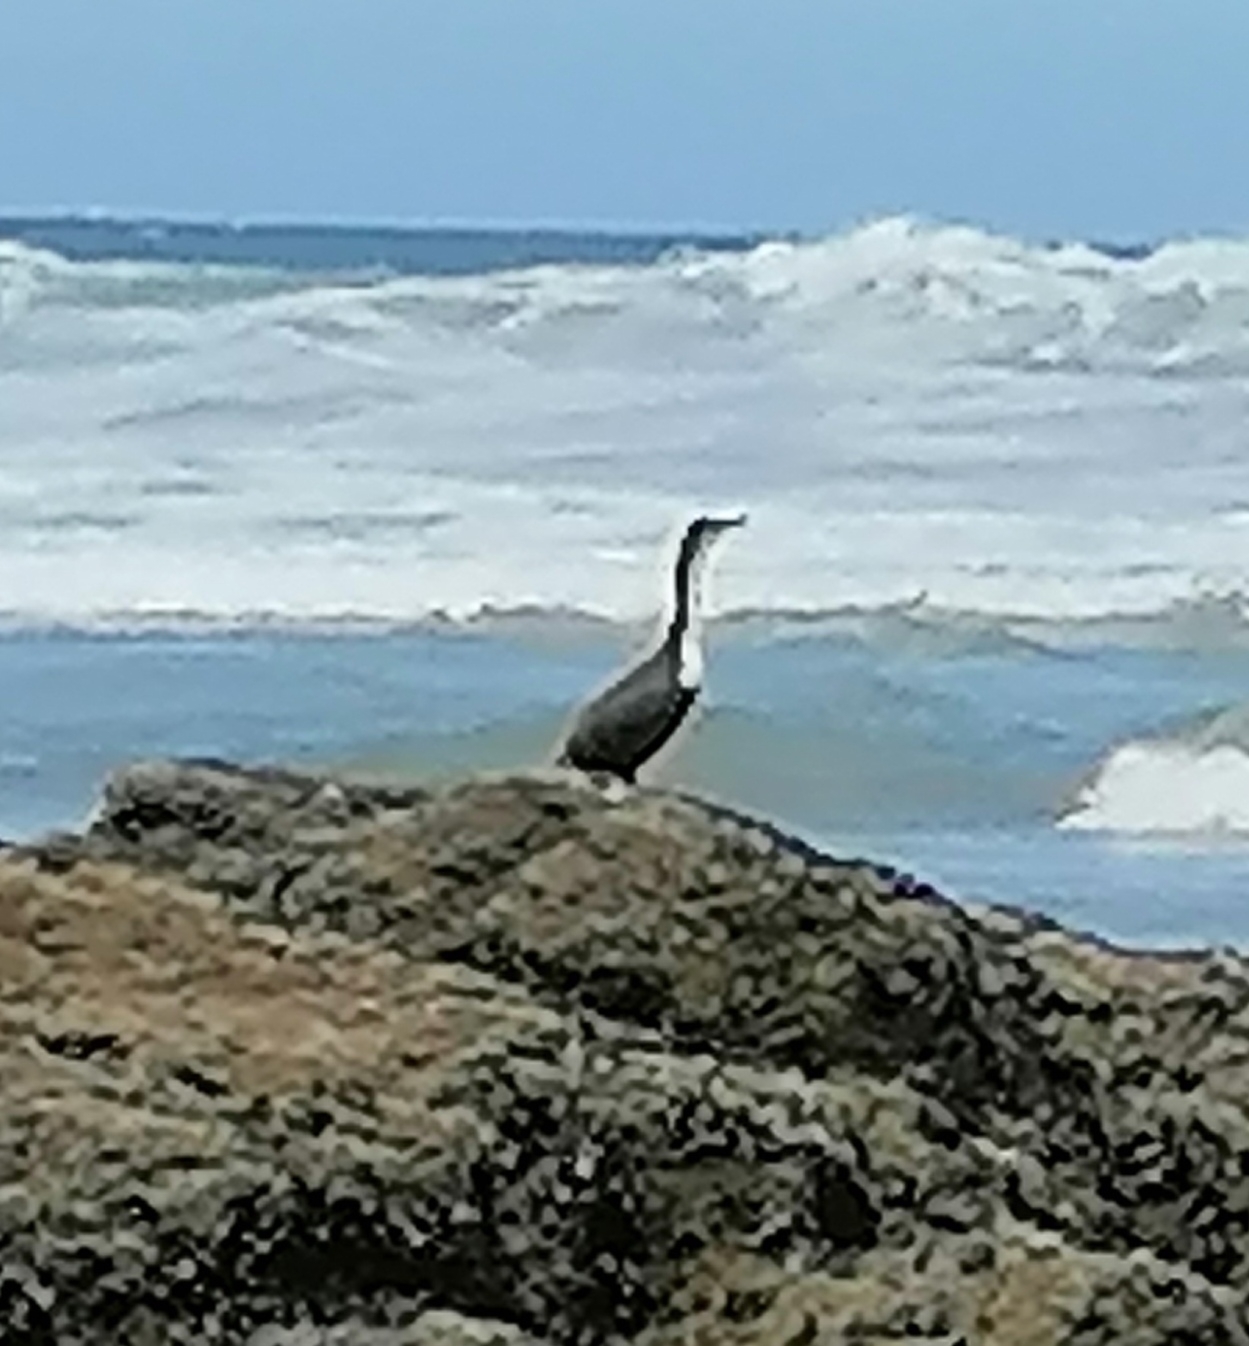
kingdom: Animalia
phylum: Chordata
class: Aves
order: Suliformes
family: Phalacrocoracidae
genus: Phalacrocorax
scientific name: Phalacrocorax carbo
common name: Great cormorant
